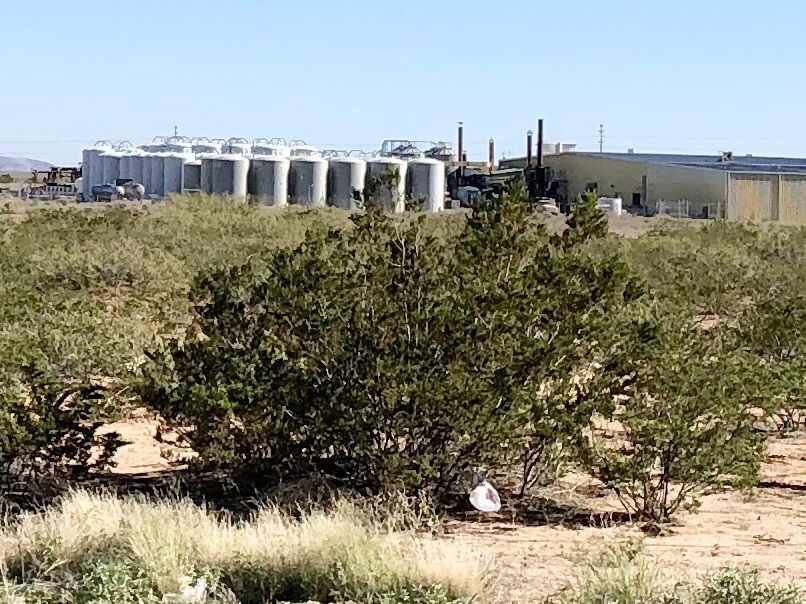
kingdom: Plantae
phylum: Tracheophyta
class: Magnoliopsida
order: Zygophyllales
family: Zygophyllaceae
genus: Larrea
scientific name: Larrea tridentata
